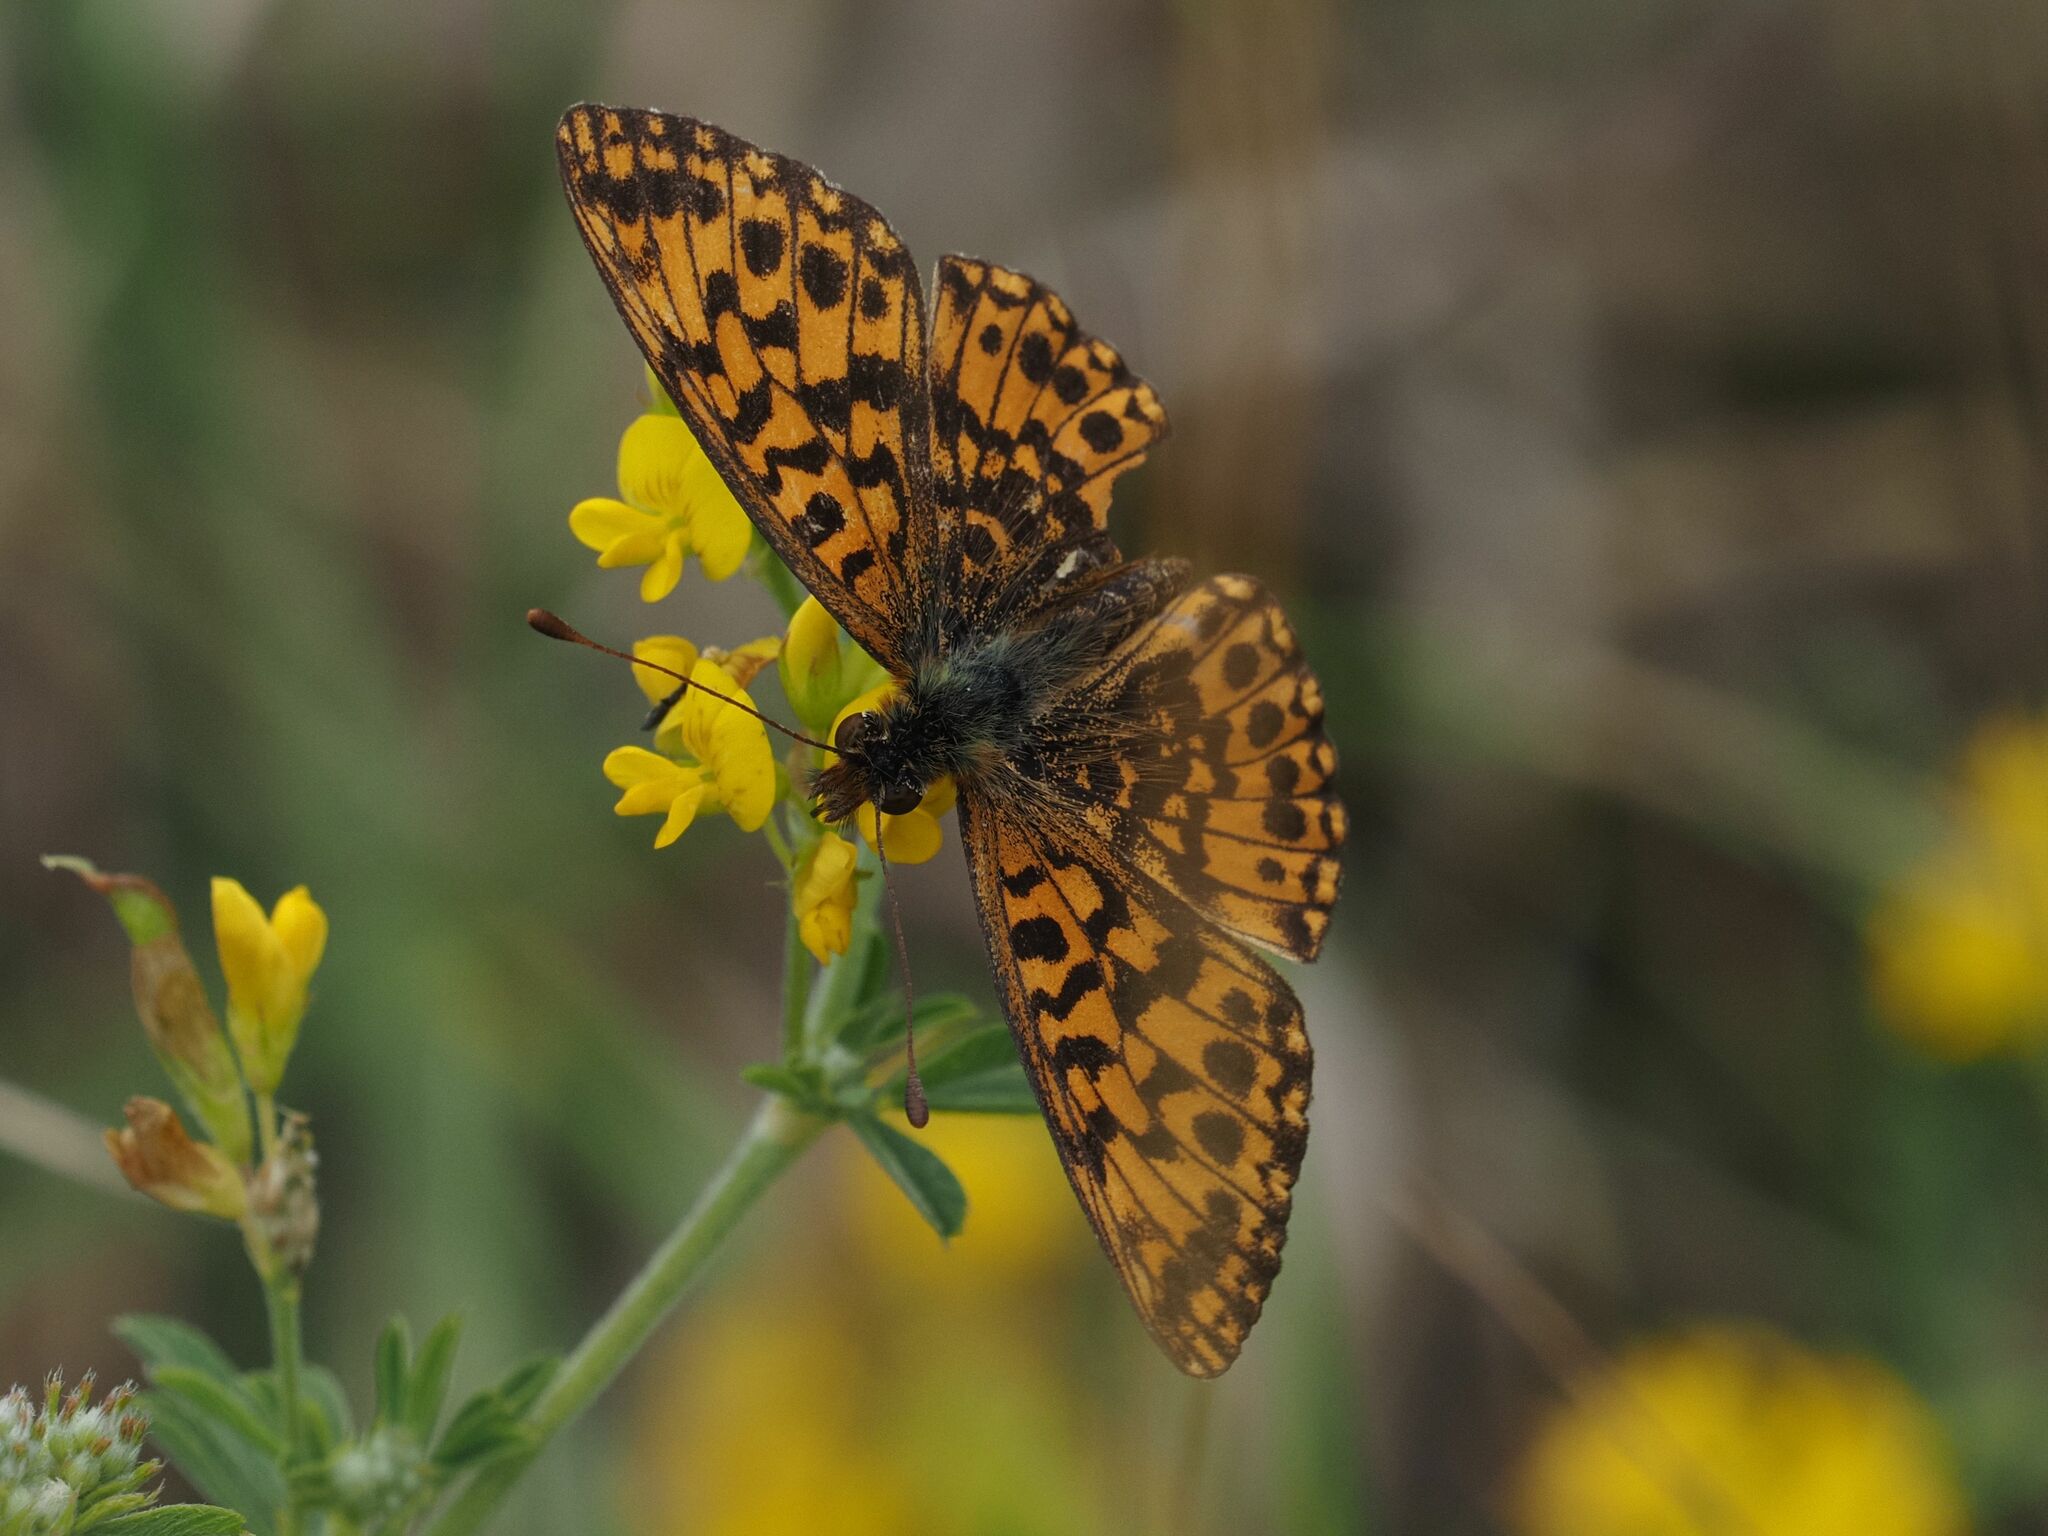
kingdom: Animalia
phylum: Arthropoda
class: Insecta
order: Lepidoptera
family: Nymphalidae
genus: Boloria
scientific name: Boloria dia
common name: Weaver's fritillary
